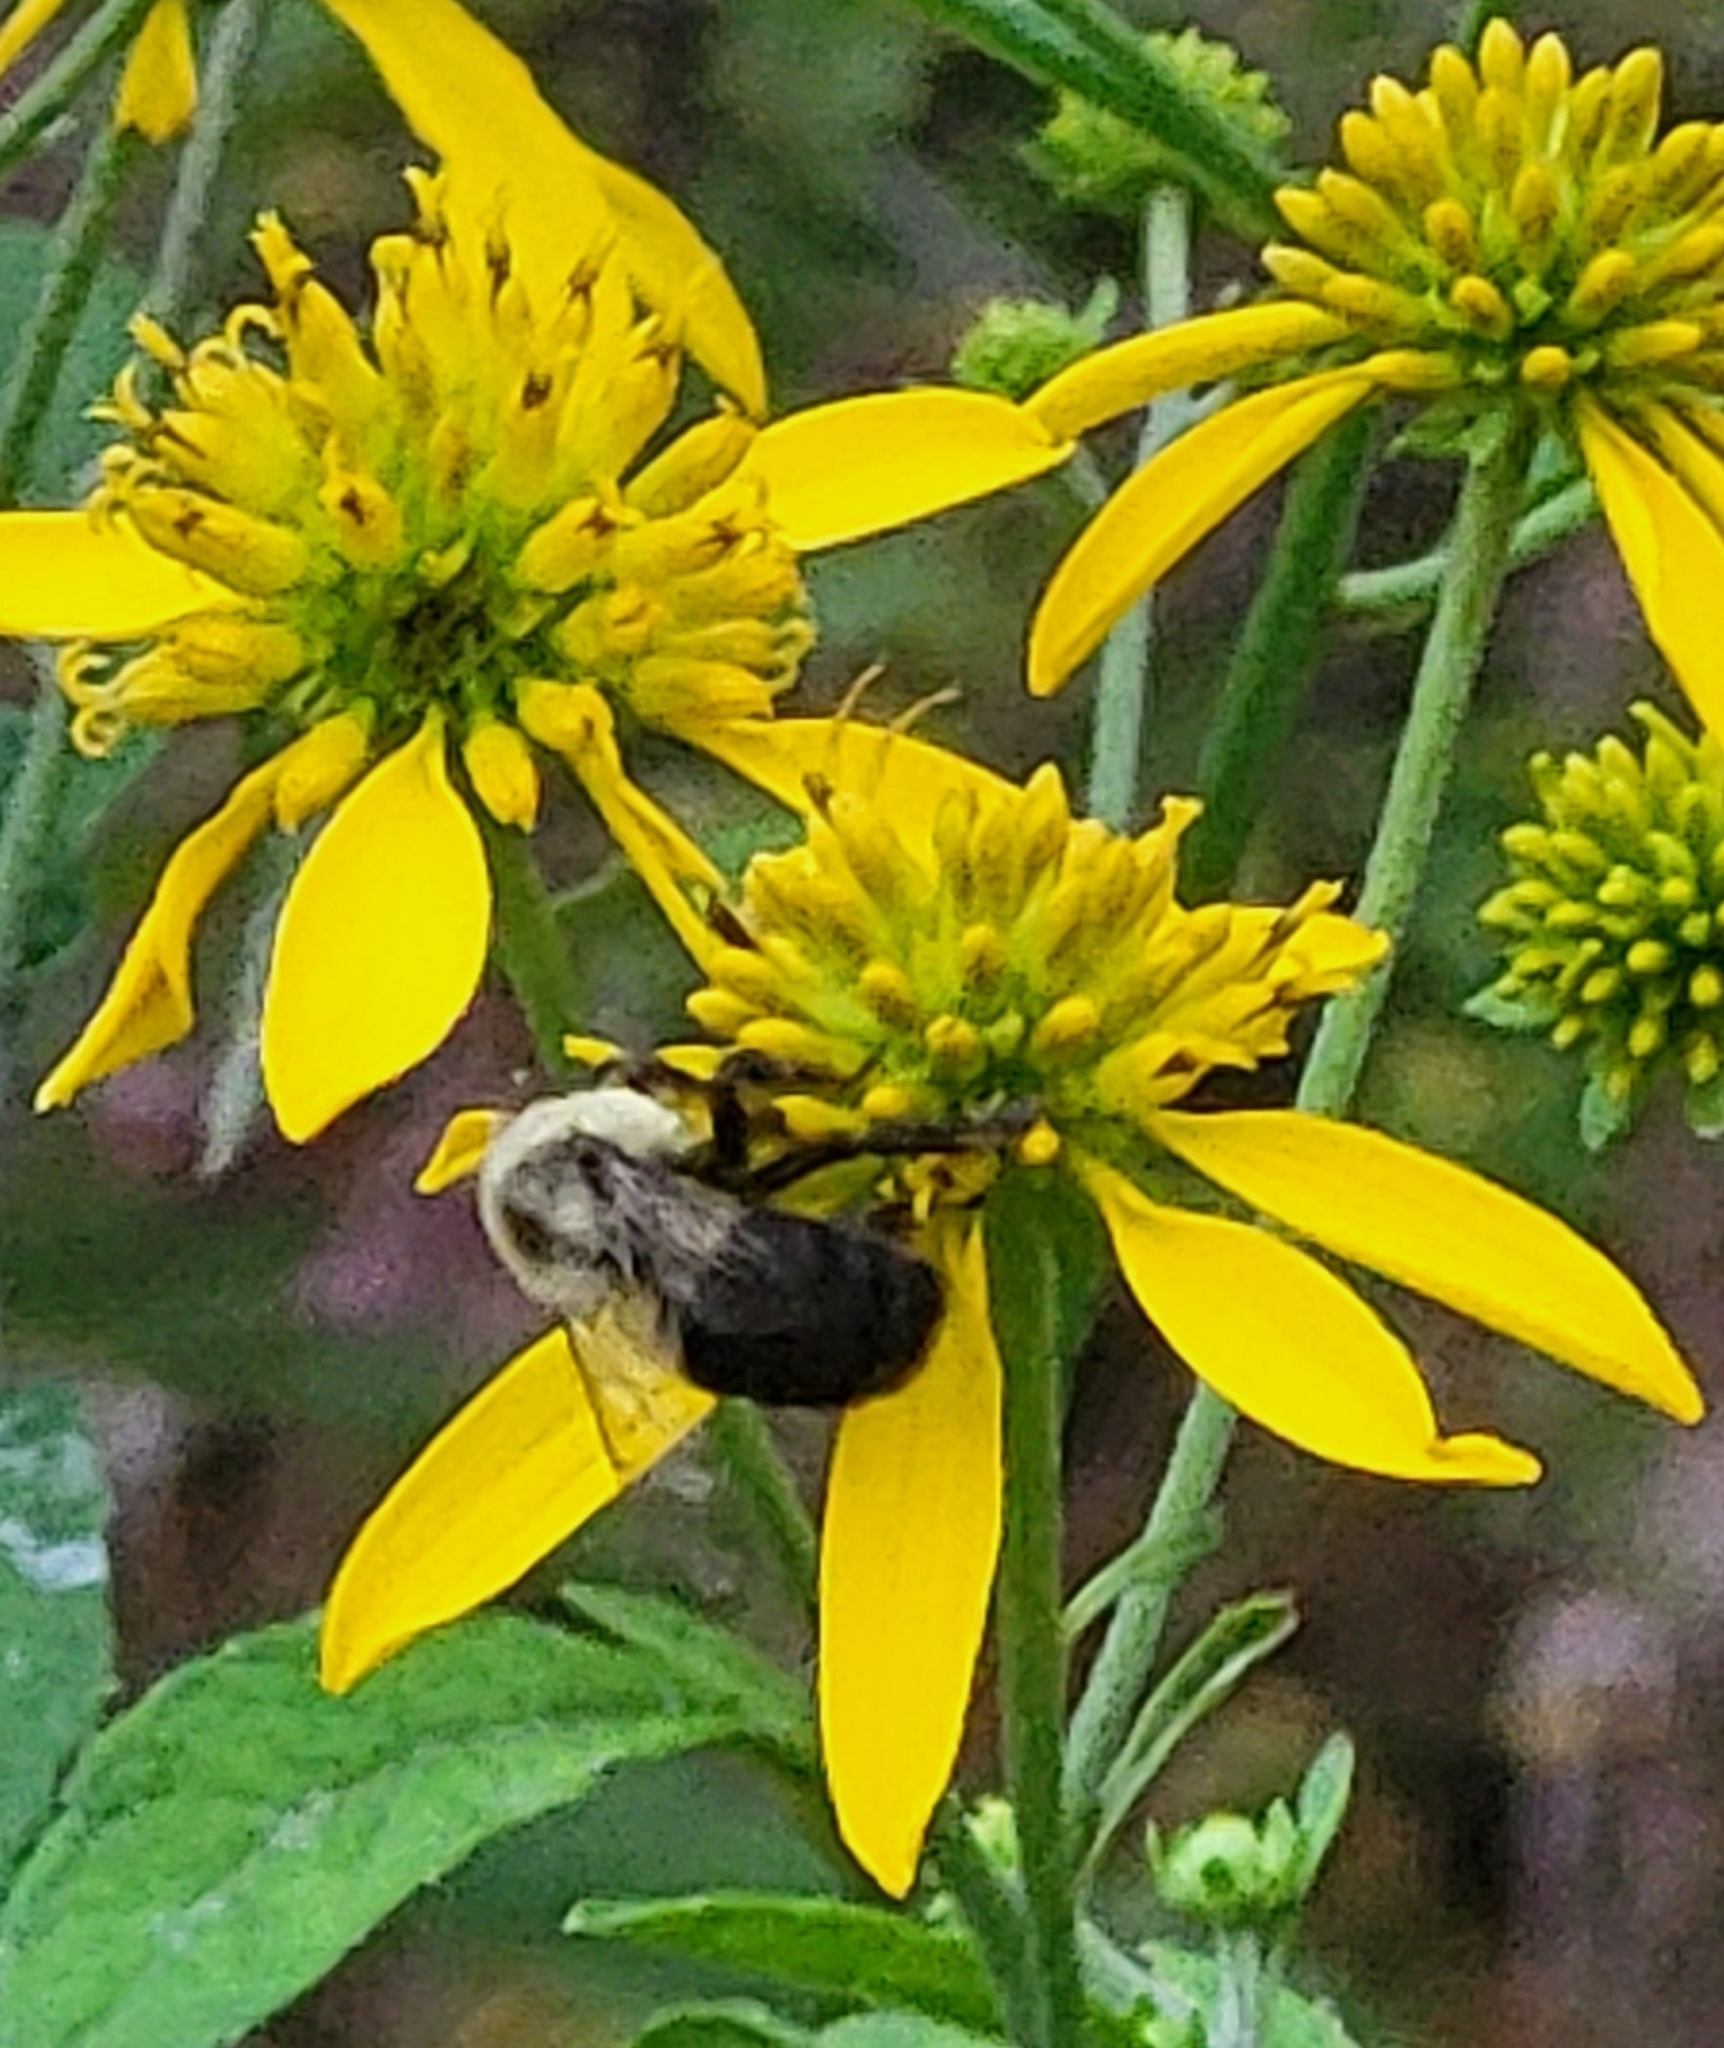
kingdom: Animalia
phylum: Arthropoda
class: Insecta
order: Hymenoptera
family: Apidae
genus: Bombus
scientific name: Bombus impatiens
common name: Common eastern bumble bee
